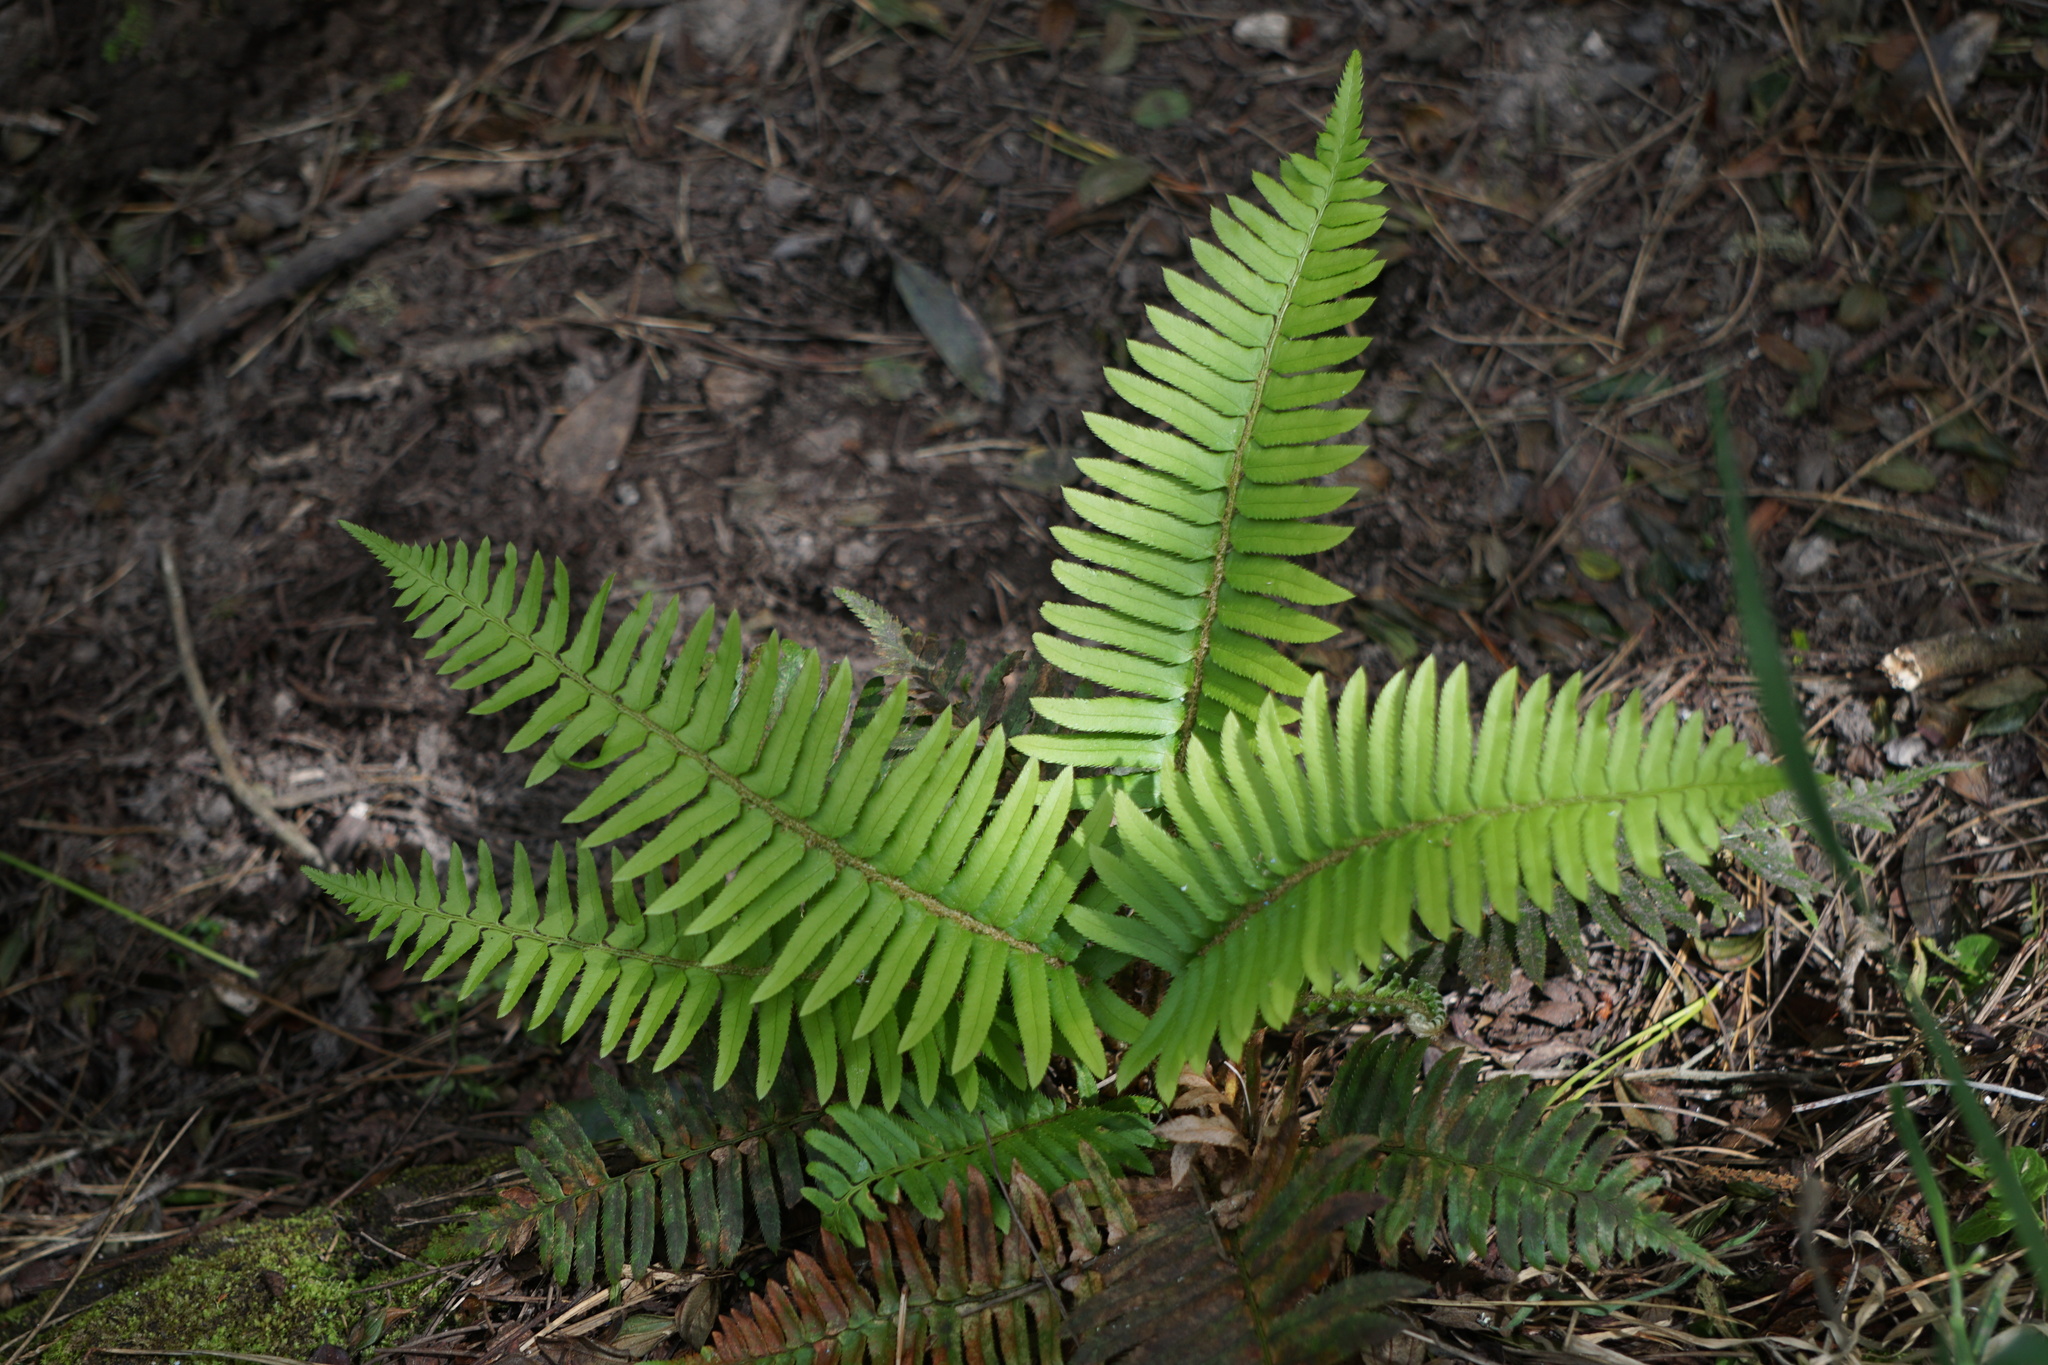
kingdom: Plantae
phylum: Tracheophyta
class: Polypodiopsida
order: Polypodiales
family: Dryopteridaceae
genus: Polystichum
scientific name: Polystichum munitum
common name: Western sword-fern
